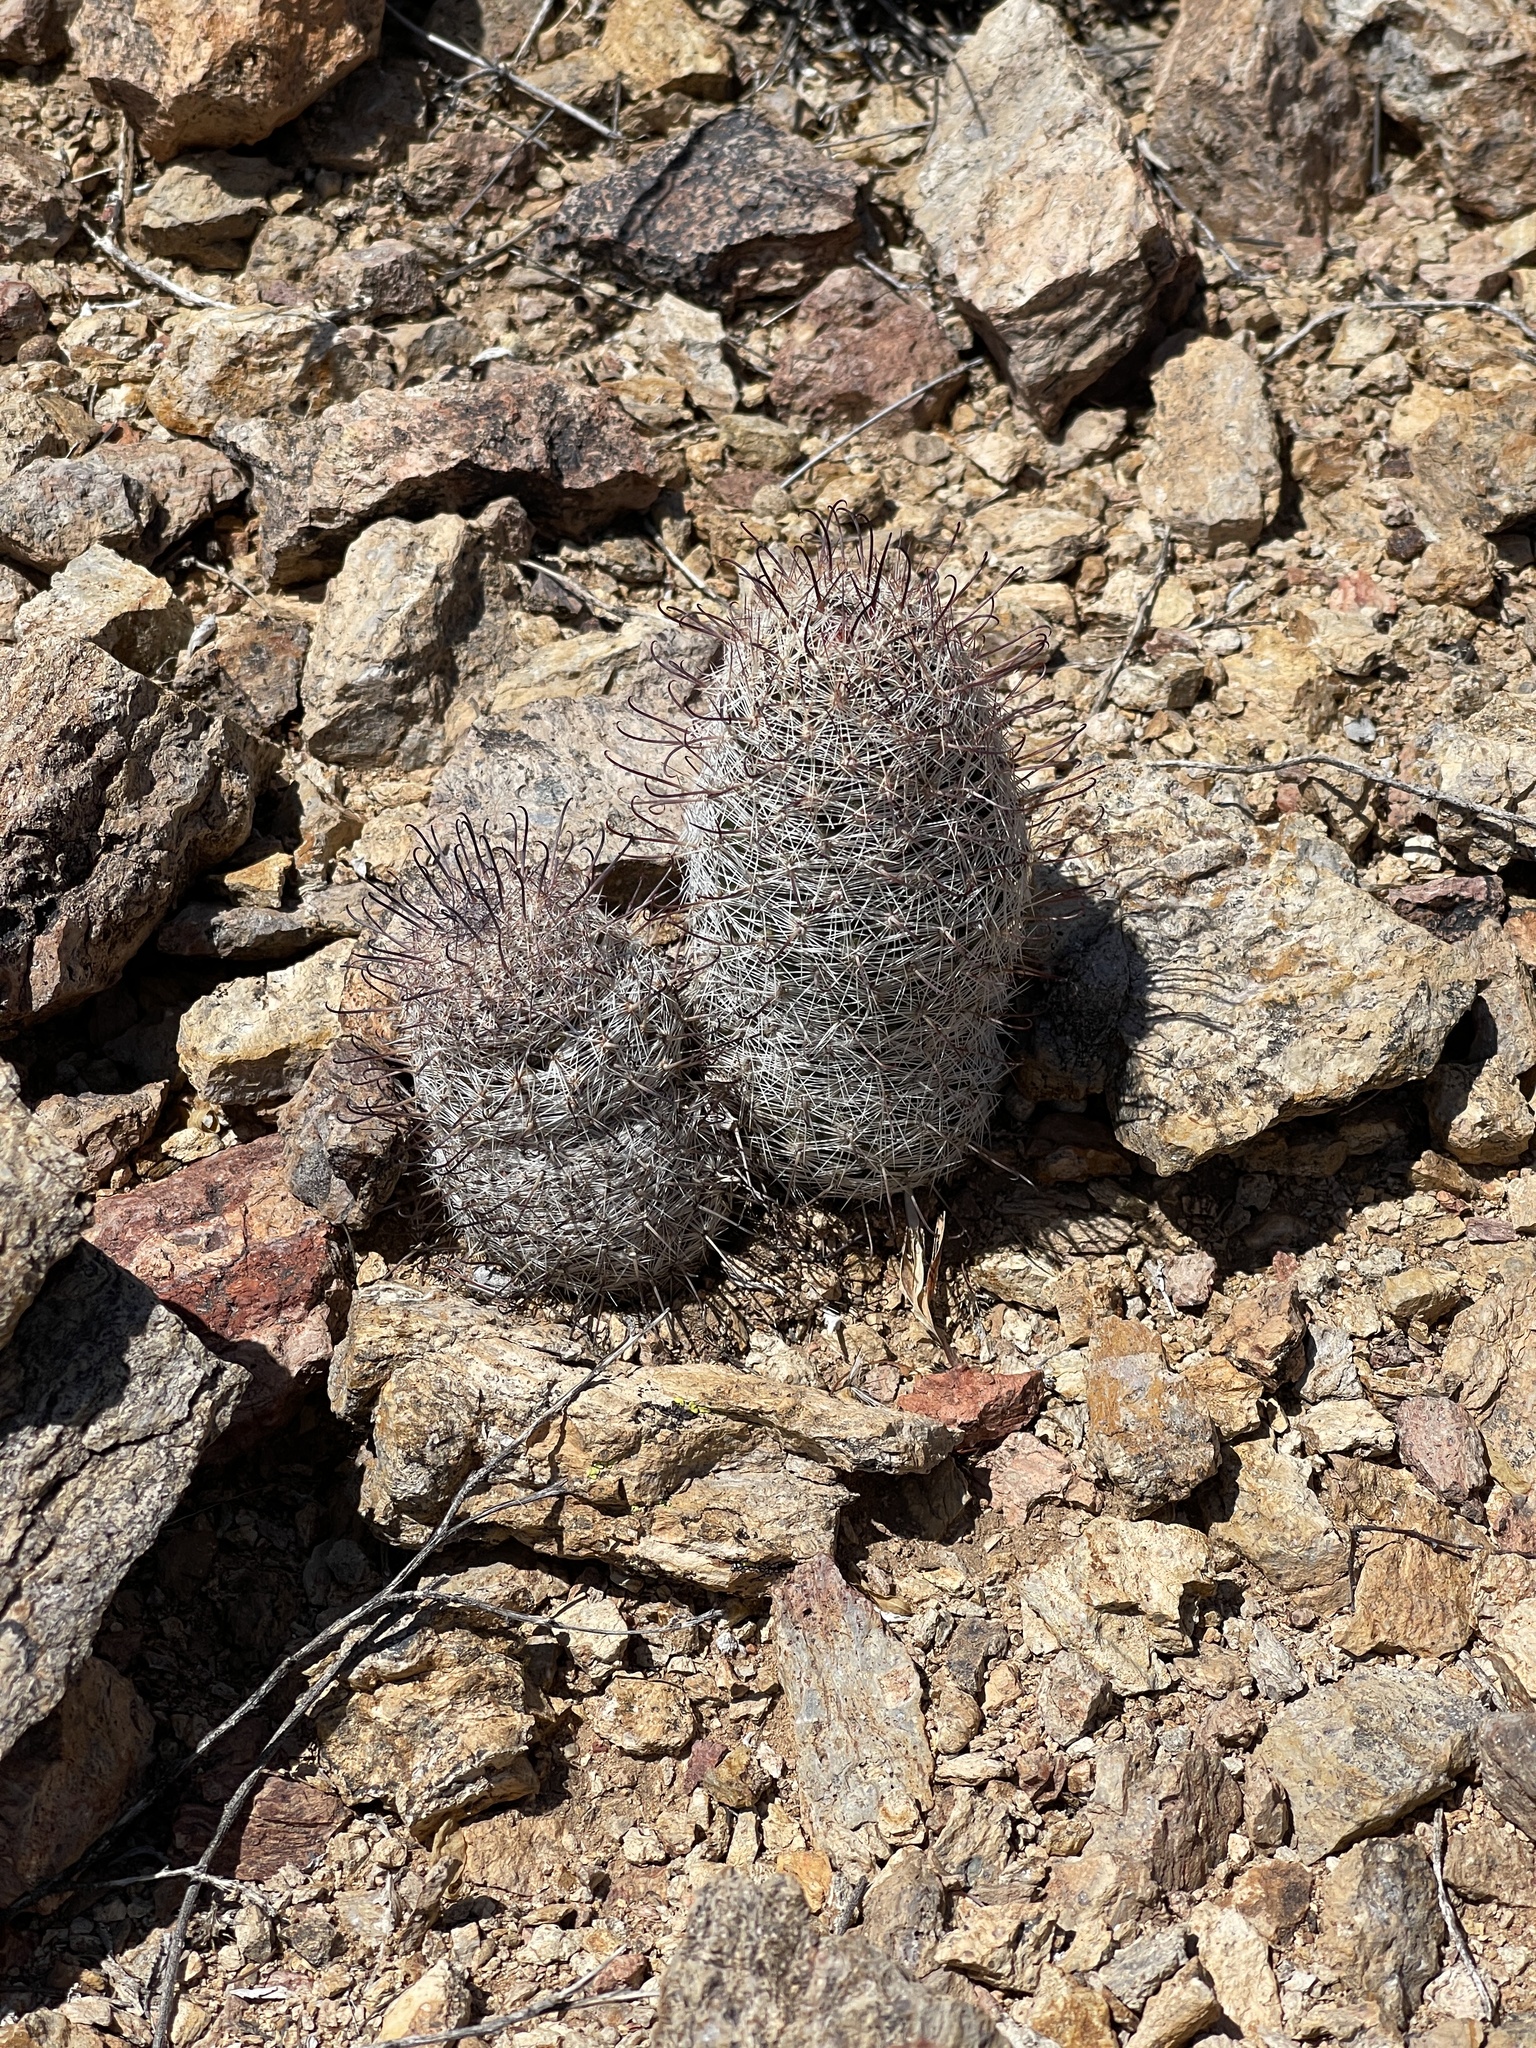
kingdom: Plantae
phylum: Tracheophyta
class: Magnoliopsida
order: Caryophyllales
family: Cactaceae
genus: Cochemiea
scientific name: Cochemiea grahamii
